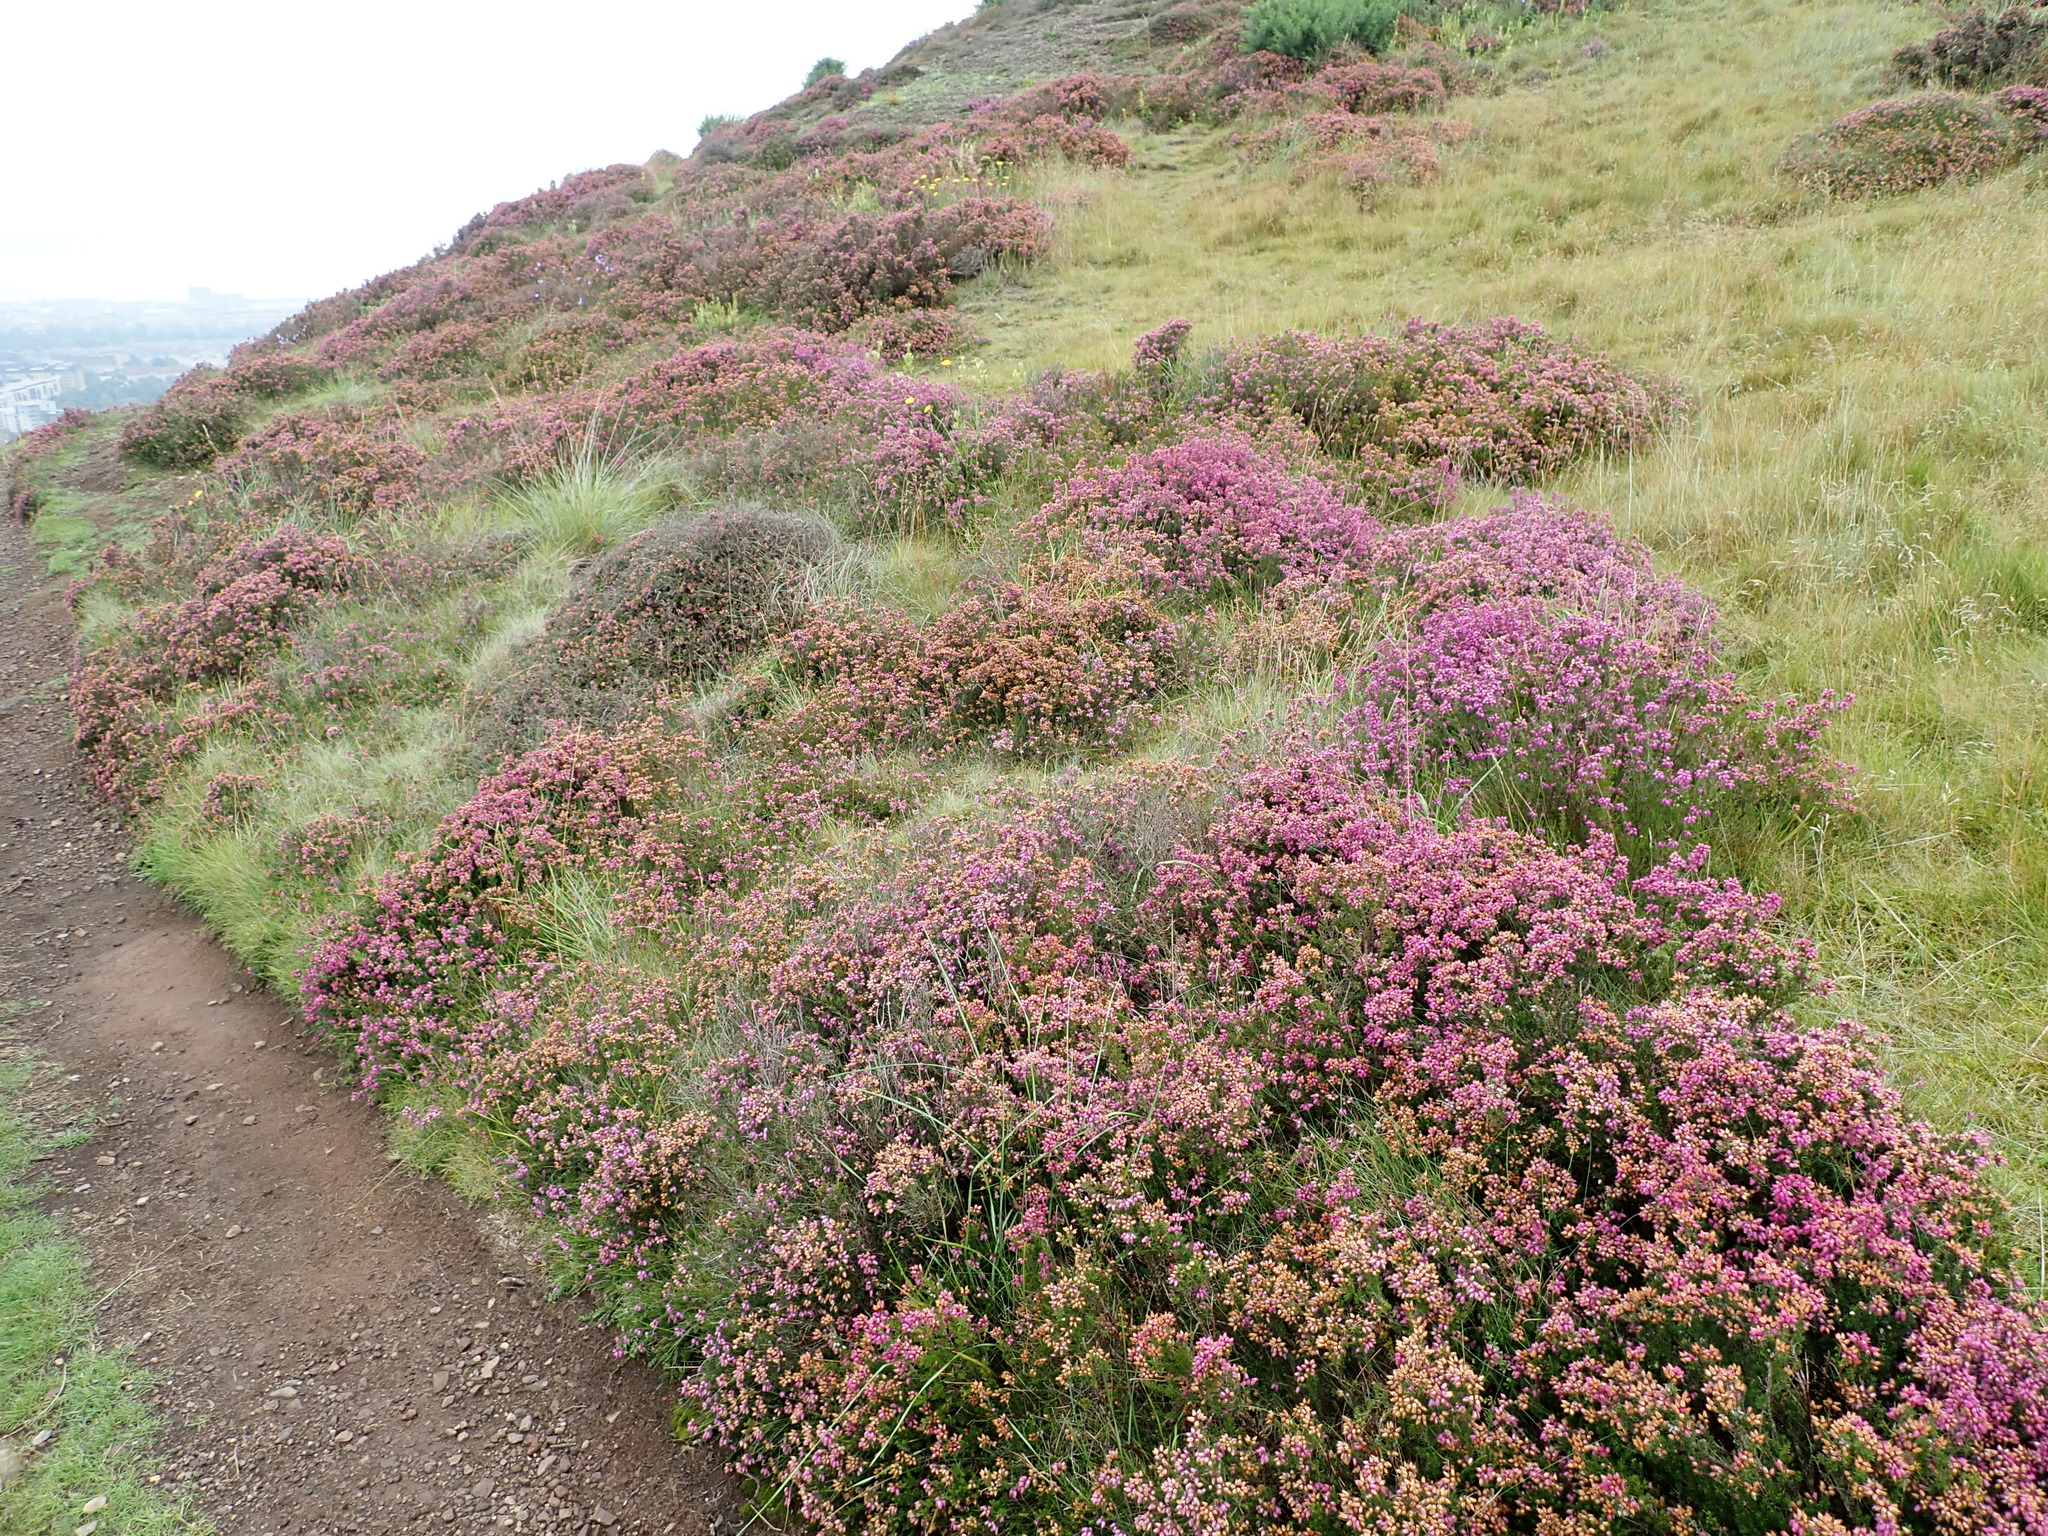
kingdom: Plantae
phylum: Tracheophyta
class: Magnoliopsida
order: Ericales
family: Ericaceae
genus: Erica
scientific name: Erica cinerea
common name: Bell heather
